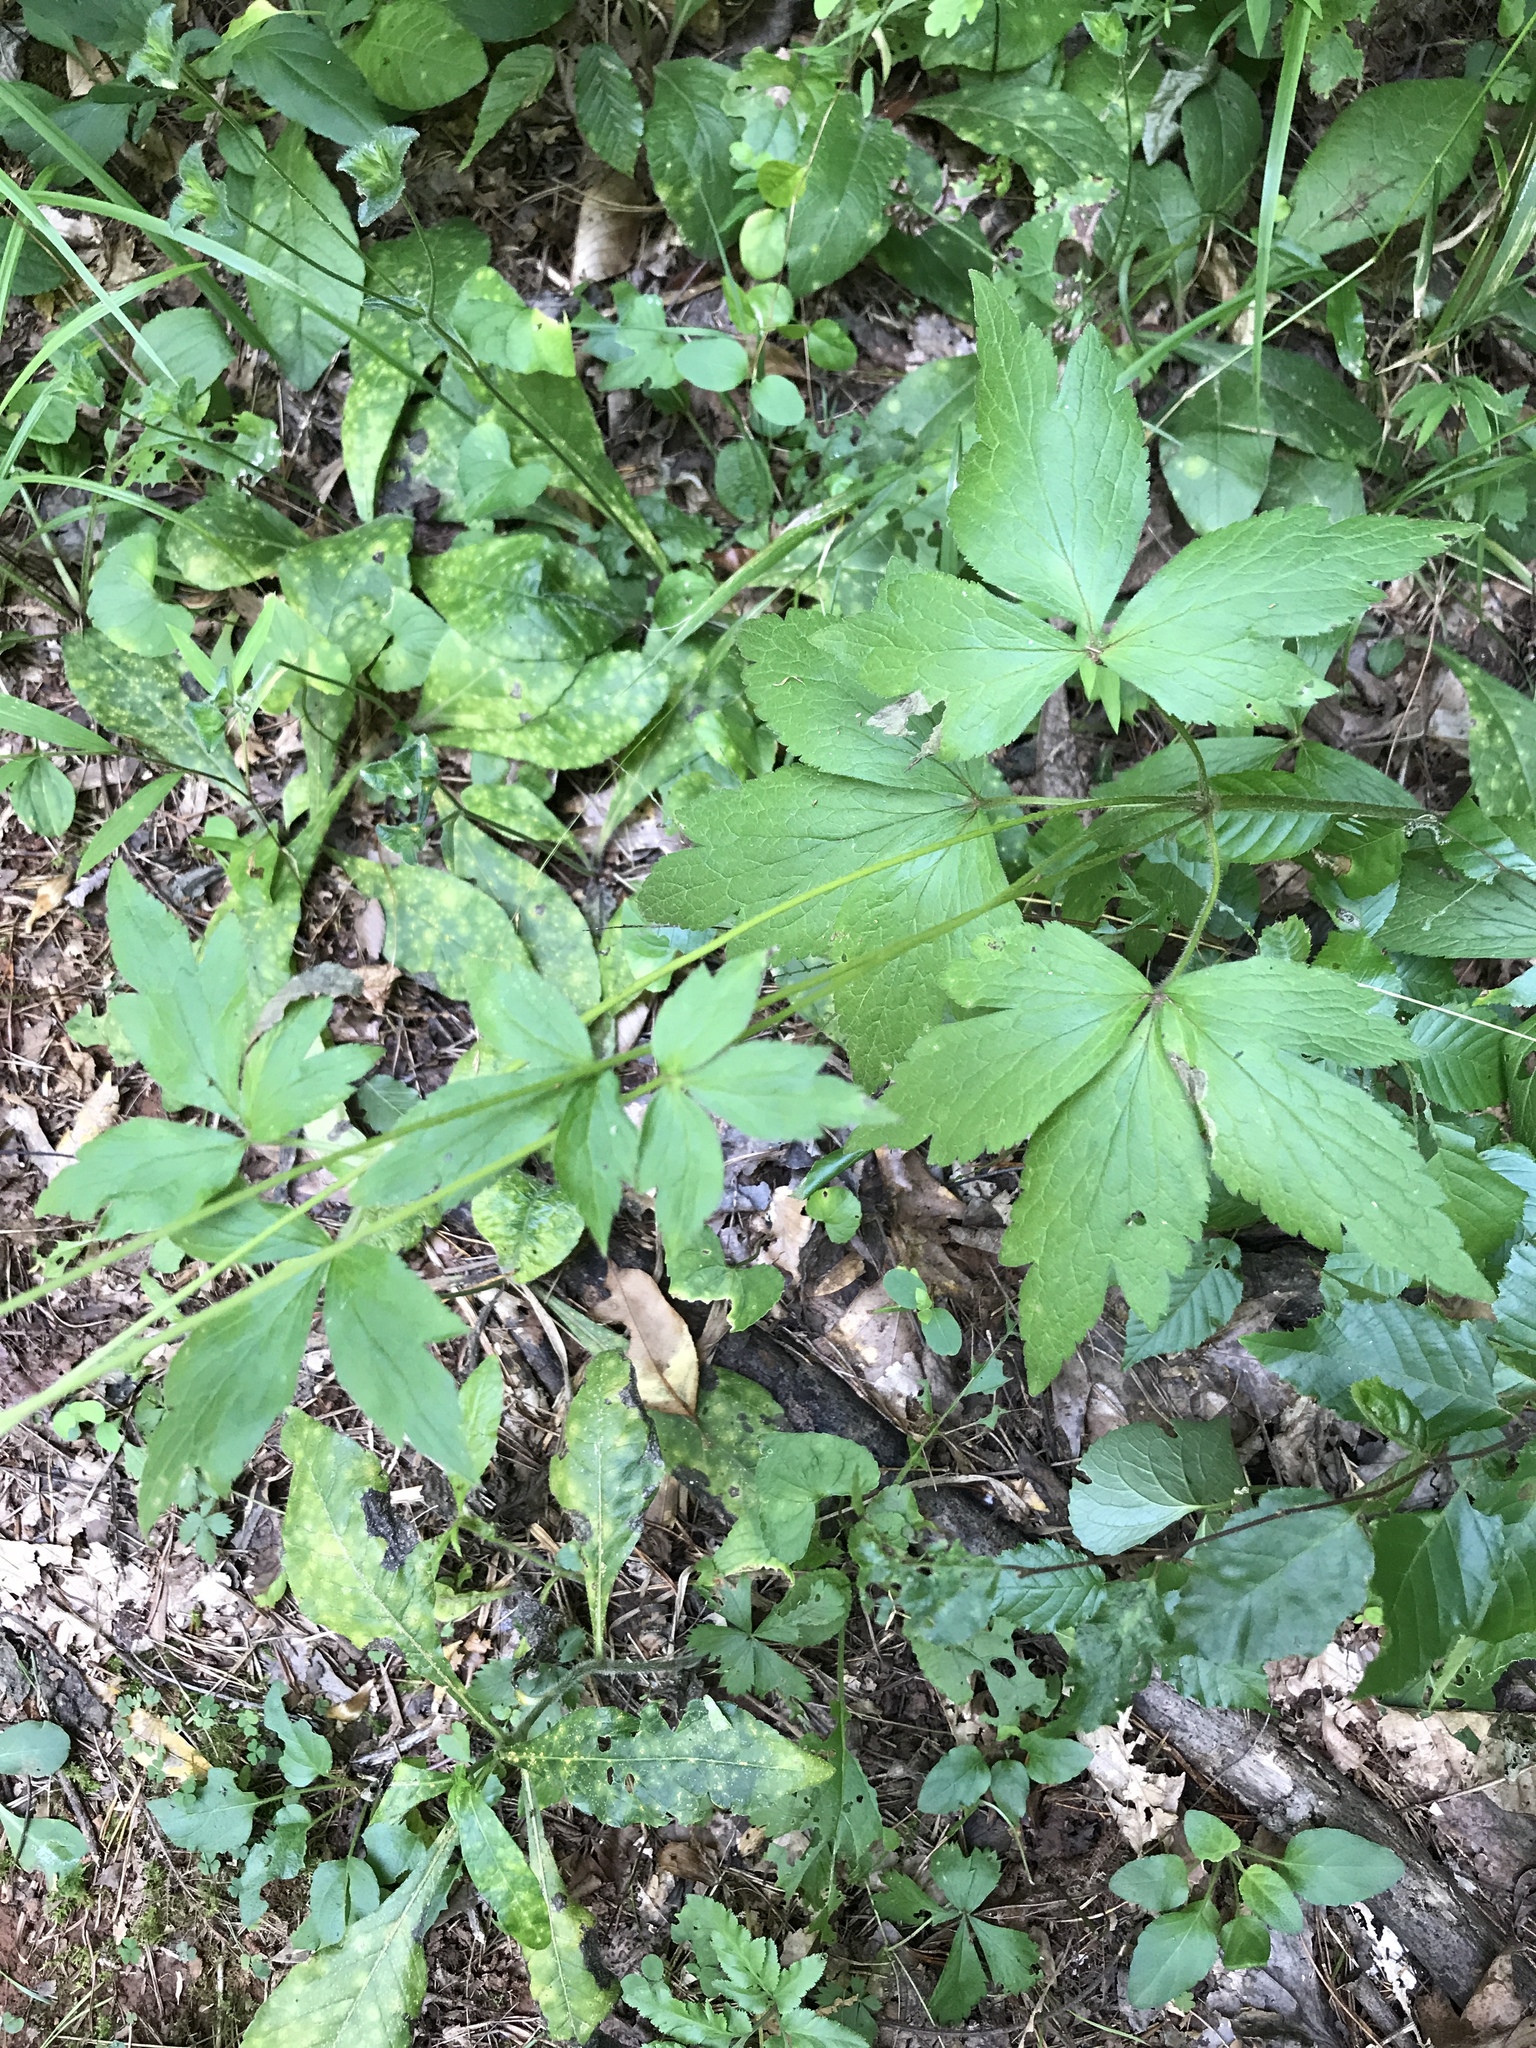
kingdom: Plantae
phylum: Tracheophyta
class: Magnoliopsida
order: Ranunculales
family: Ranunculaceae
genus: Anemone
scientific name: Anemone virginiana
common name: Tall anemone
